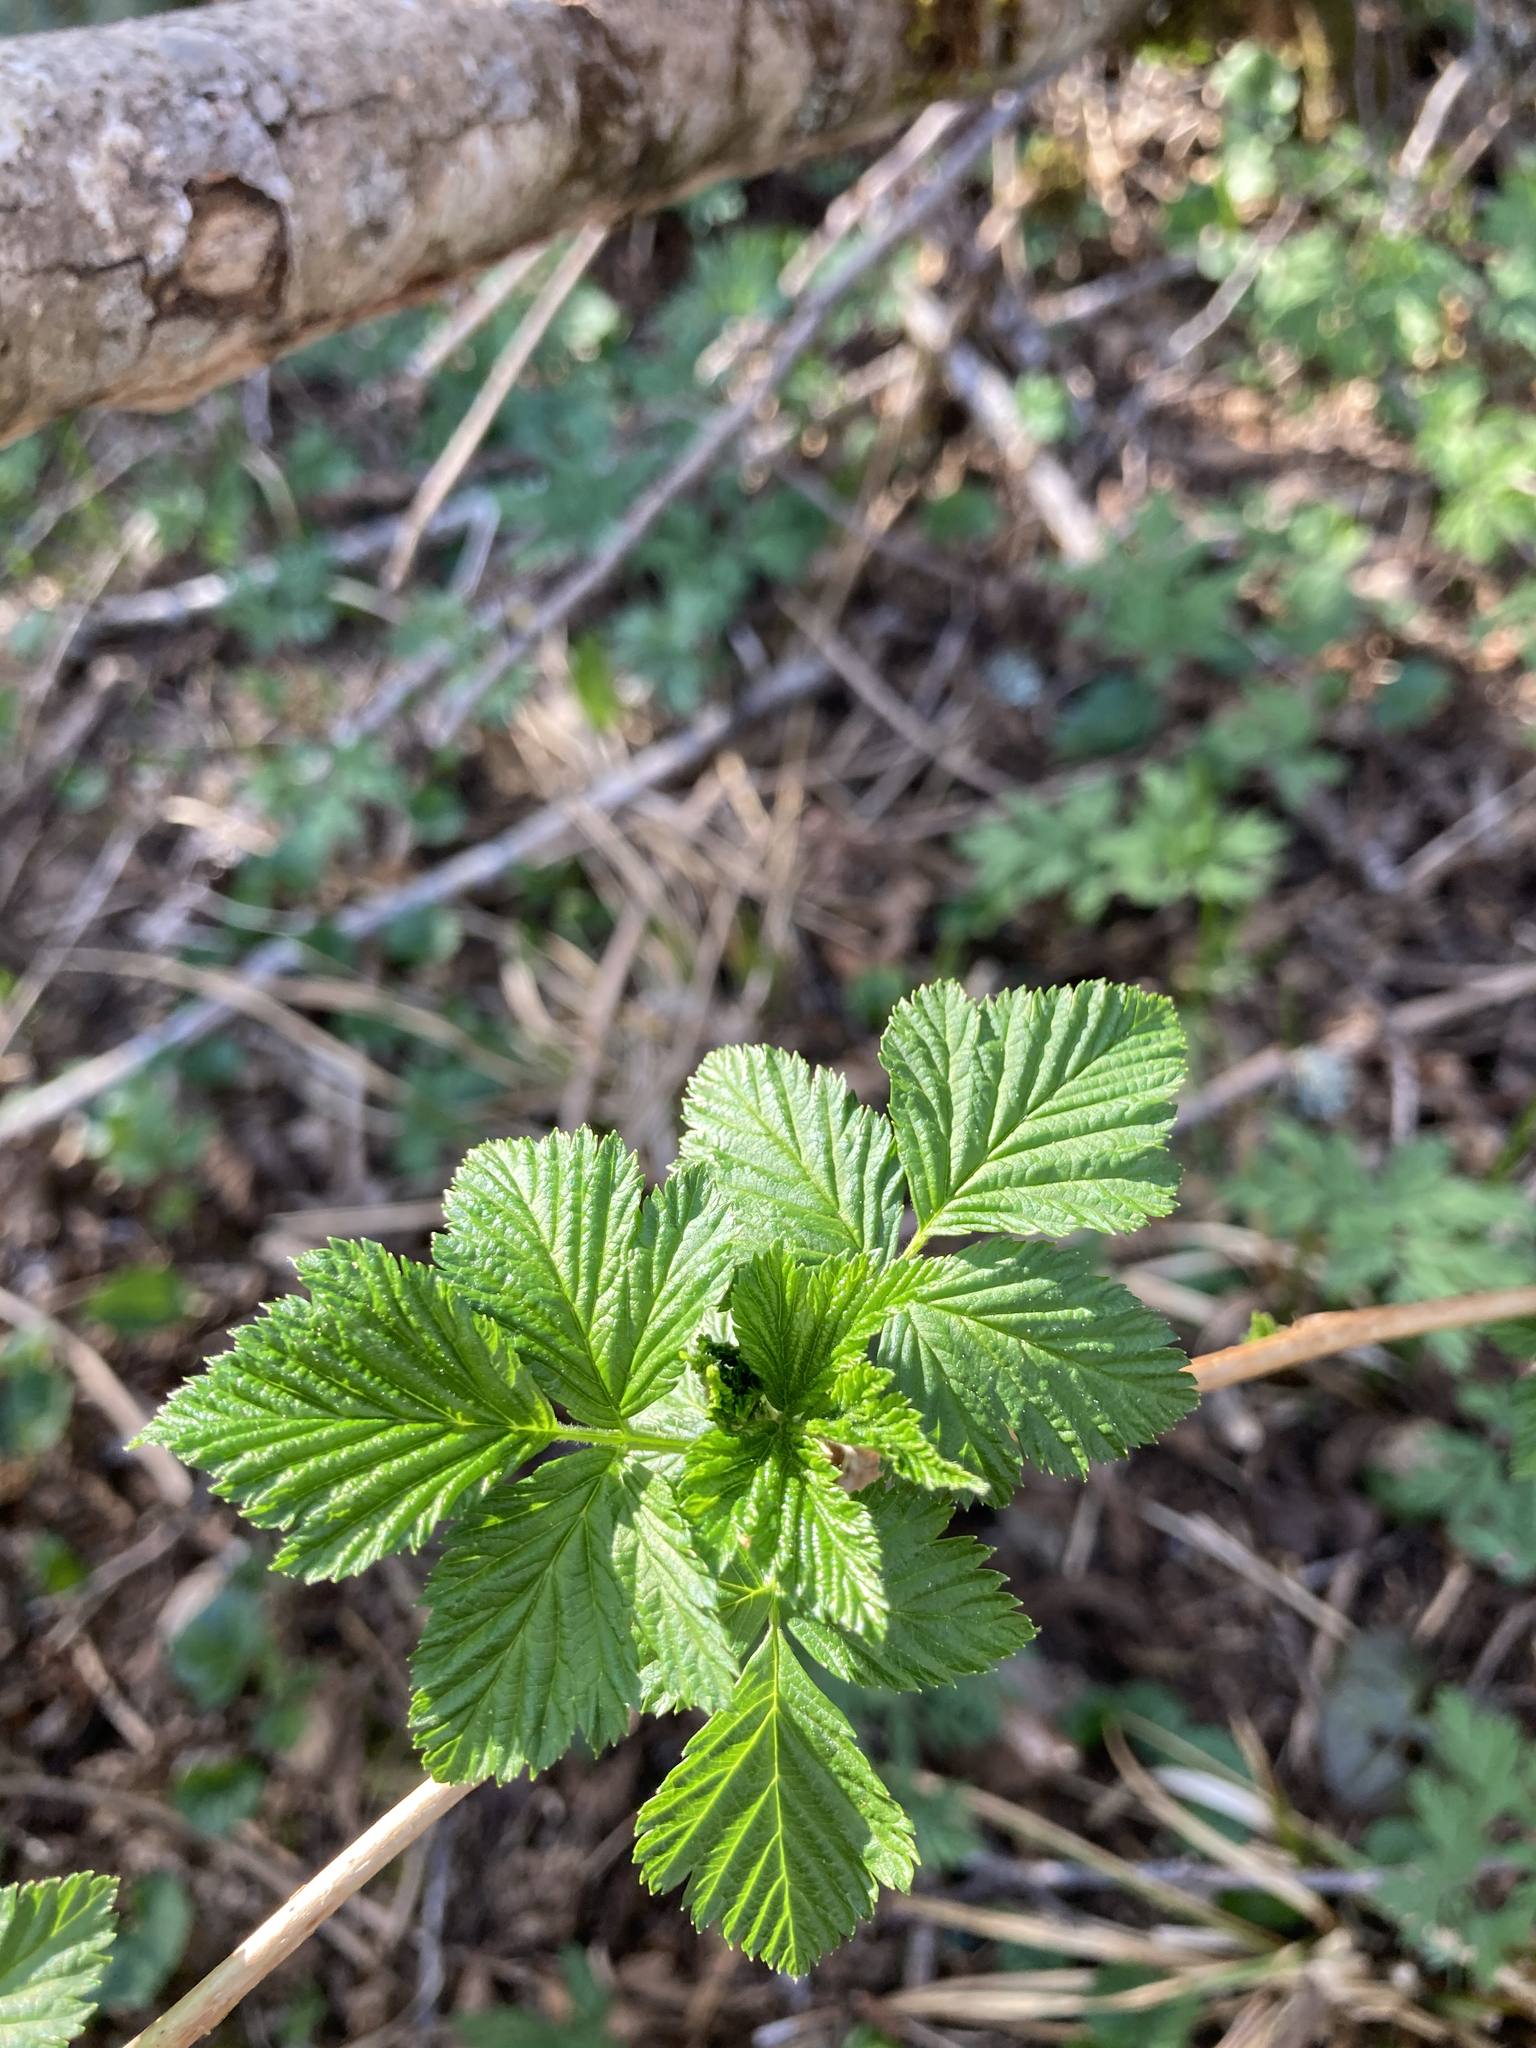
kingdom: Plantae
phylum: Tracheophyta
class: Magnoliopsida
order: Rosales
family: Rosaceae
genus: Rubus
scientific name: Rubus spectabilis
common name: Salmonberry
